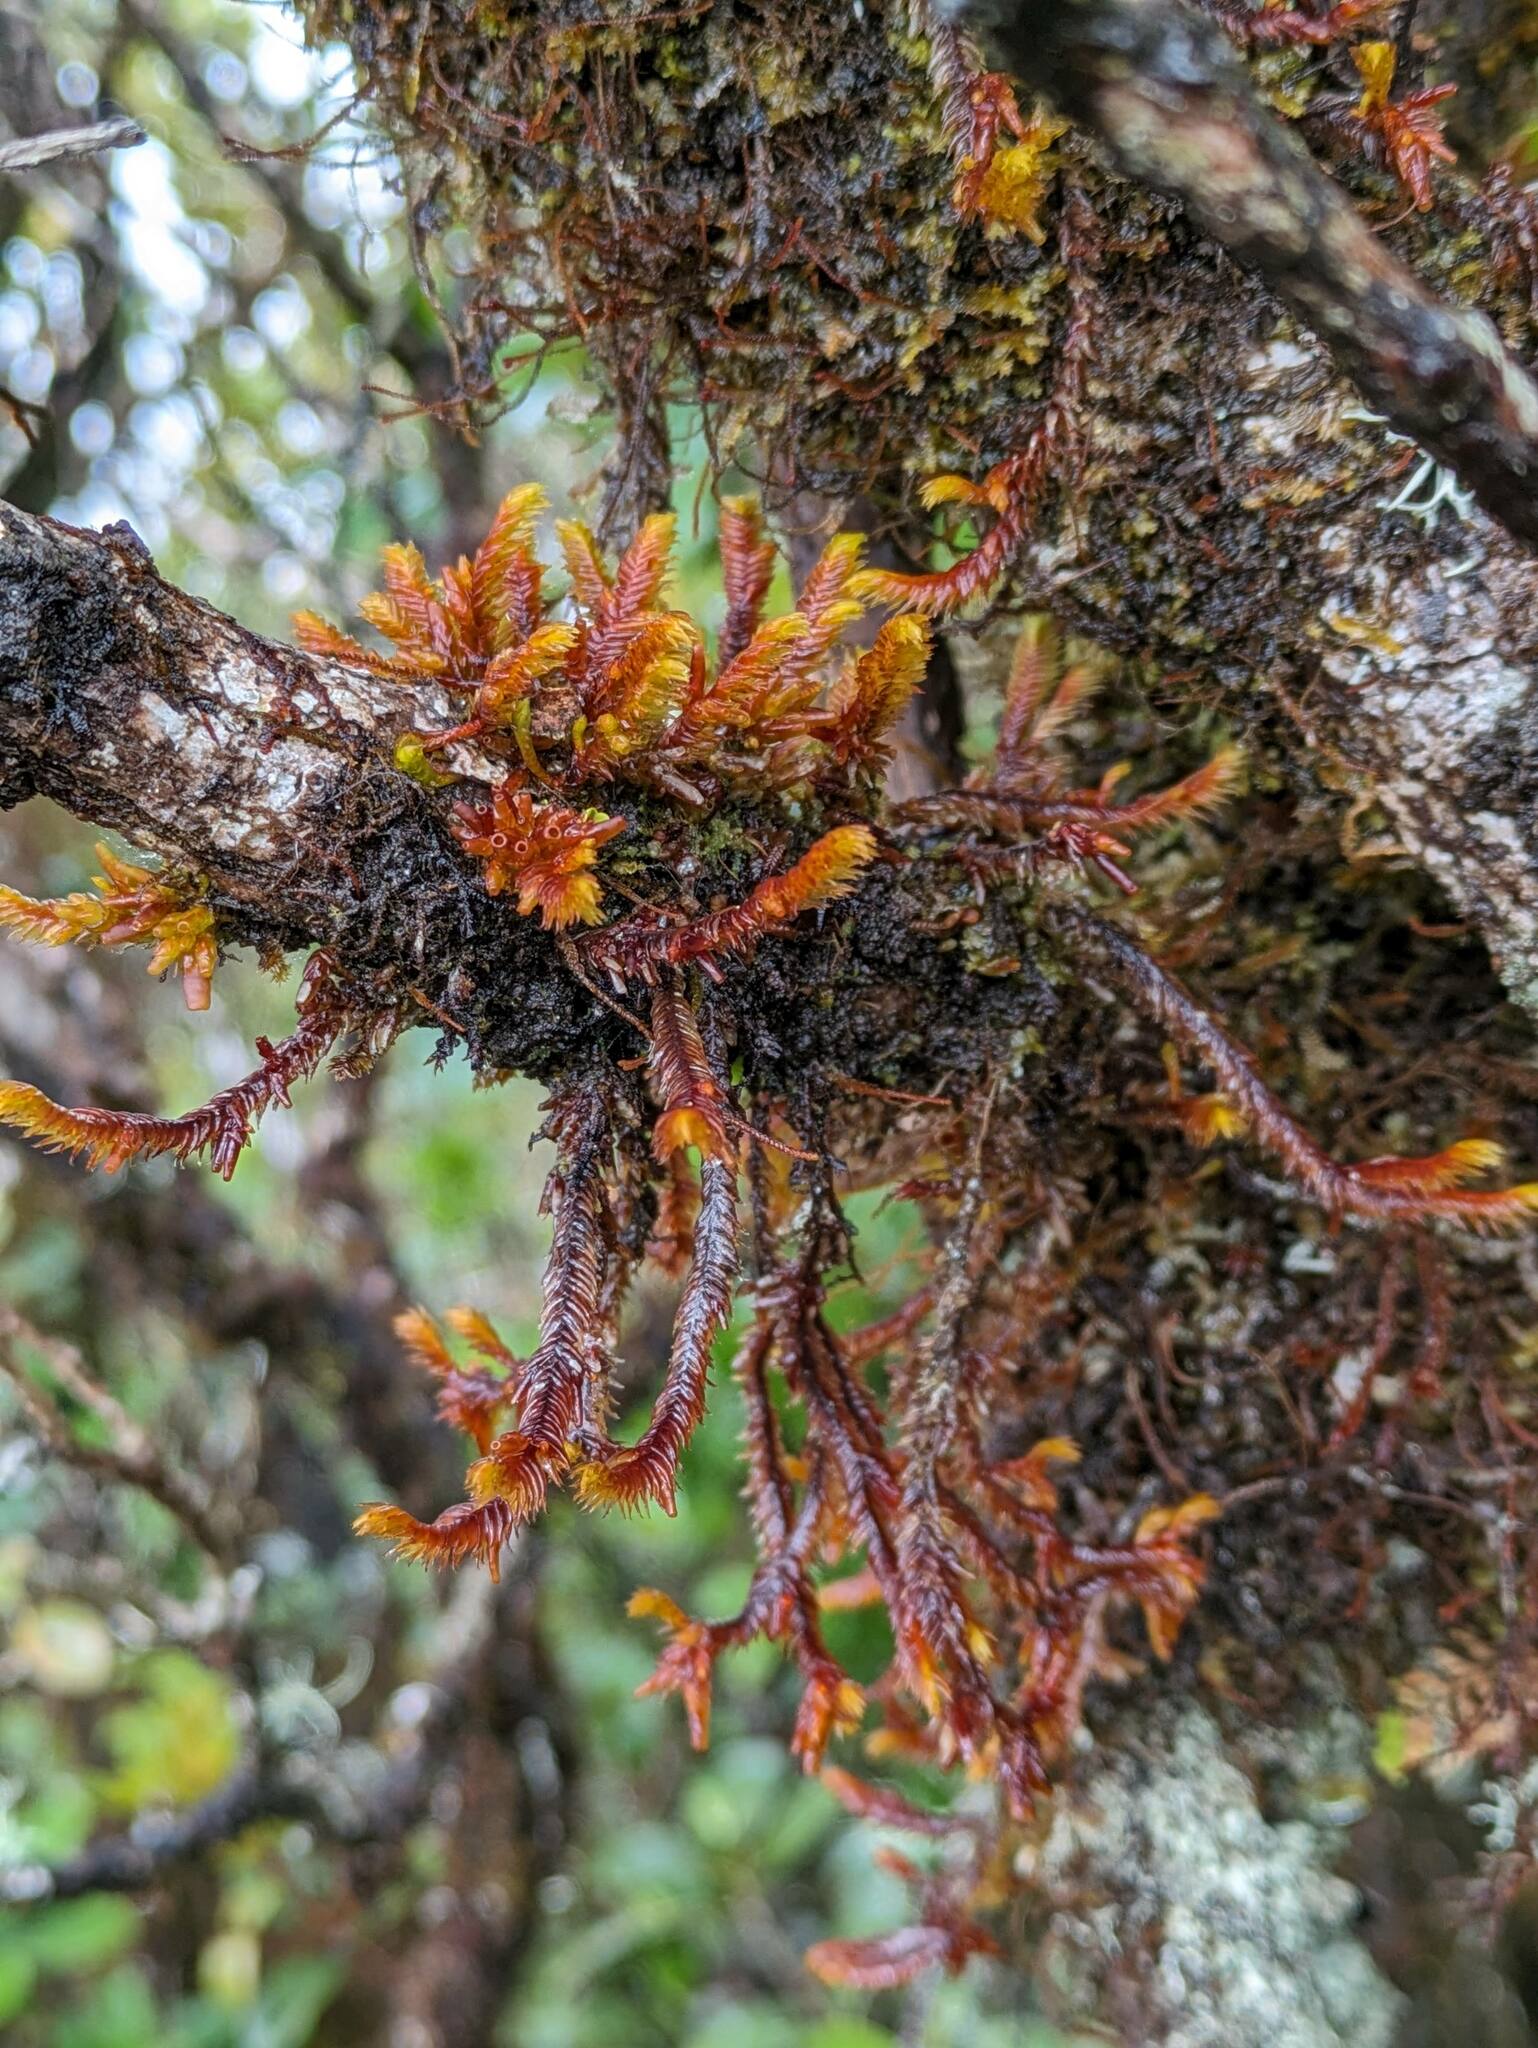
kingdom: Plantae
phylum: Marchantiophyta
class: Jungermanniopsida
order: Pleuroziales
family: Pleuroziaceae
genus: Pleurozia
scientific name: Pleurozia subinflata
